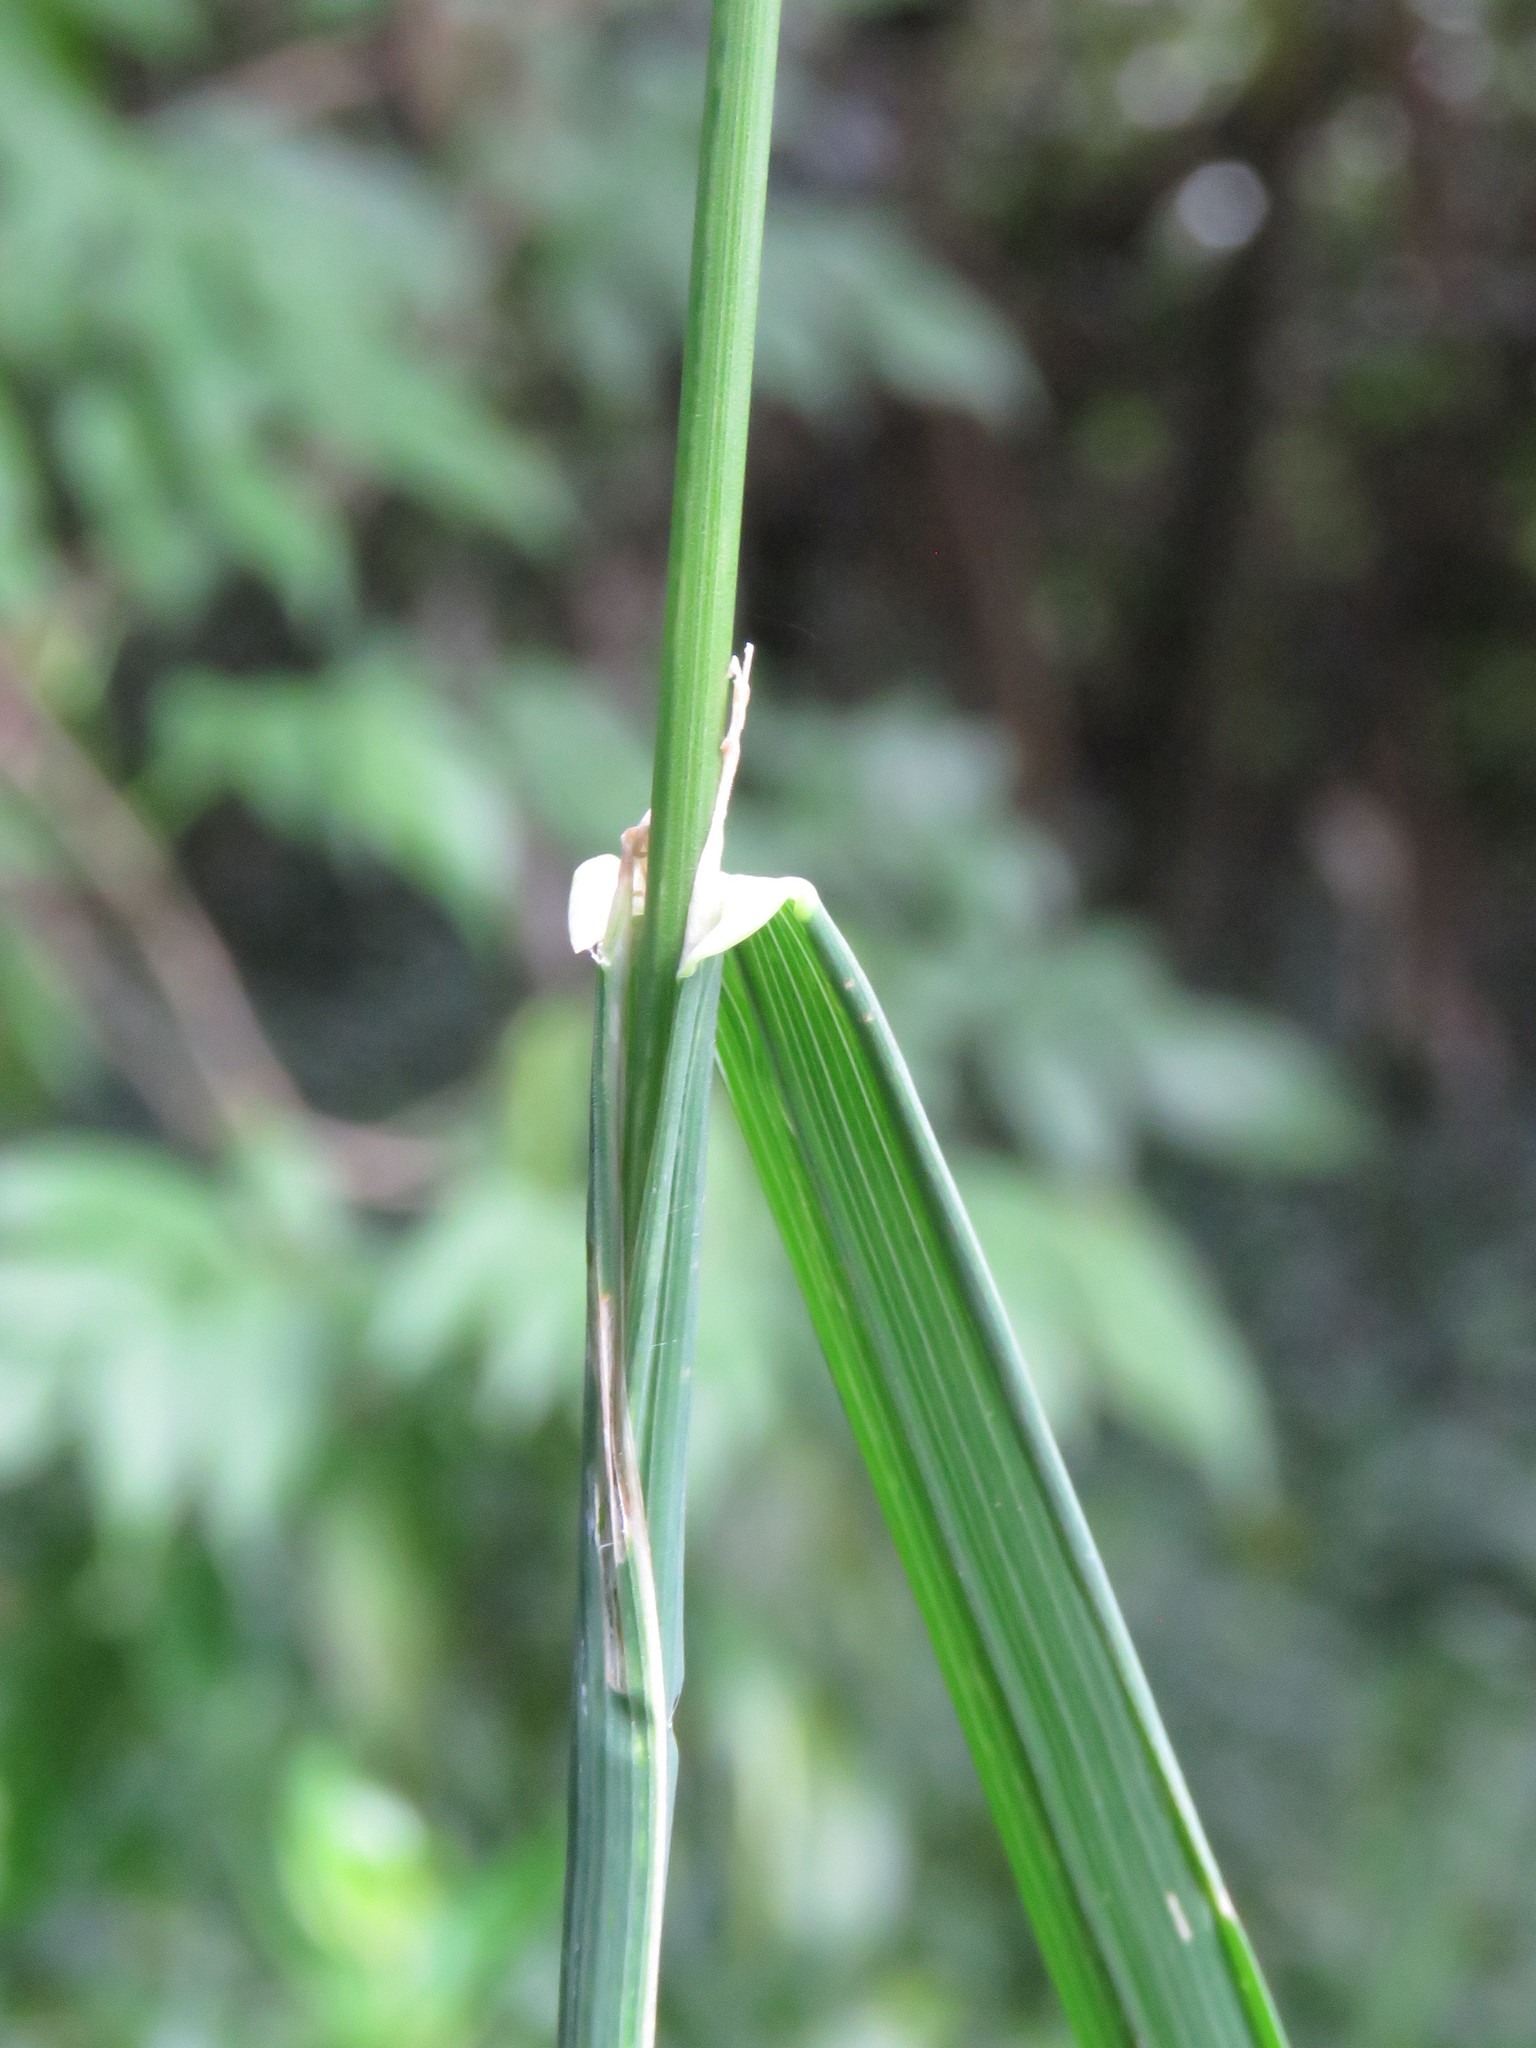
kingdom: Plantae
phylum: Tracheophyta
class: Liliopsida
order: Poales
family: Poaceae
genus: Dactylis
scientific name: Dactylis glomerata
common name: Orchardgrass
